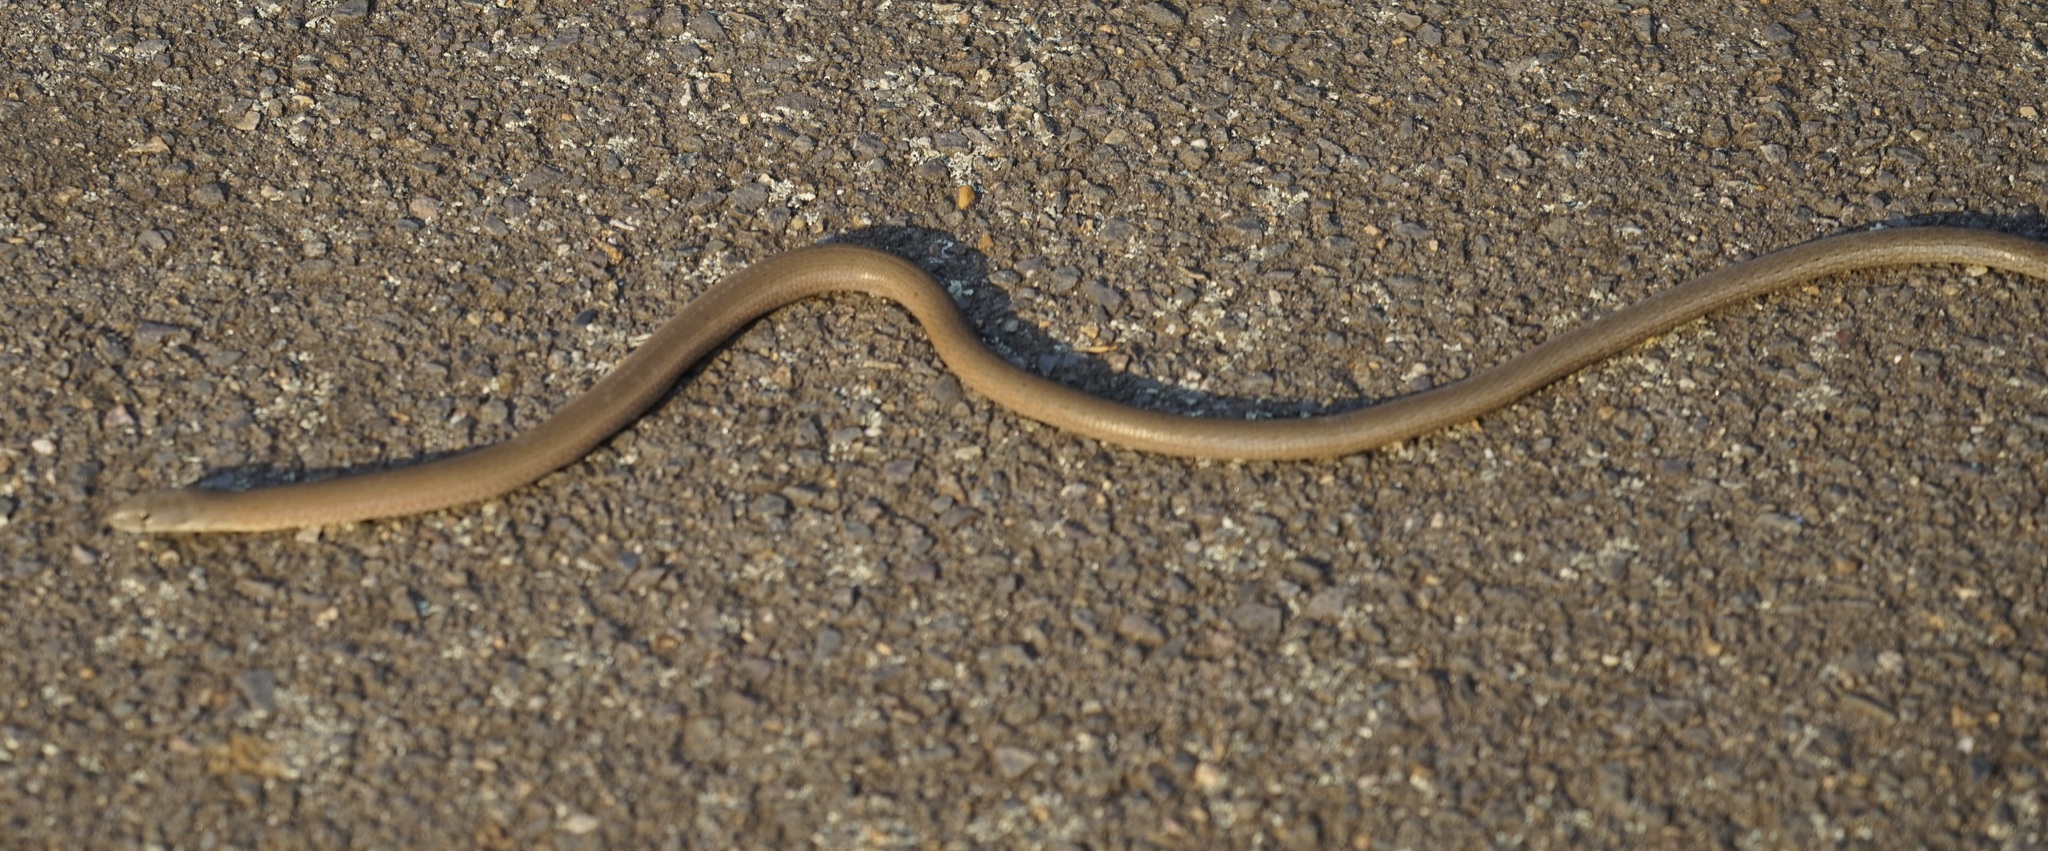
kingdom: Animalia
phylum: Chordata
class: Squamata
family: Pygopodidae
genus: Pygopus
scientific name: Pygopus lepidopodus
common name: Southern scaly-foot
